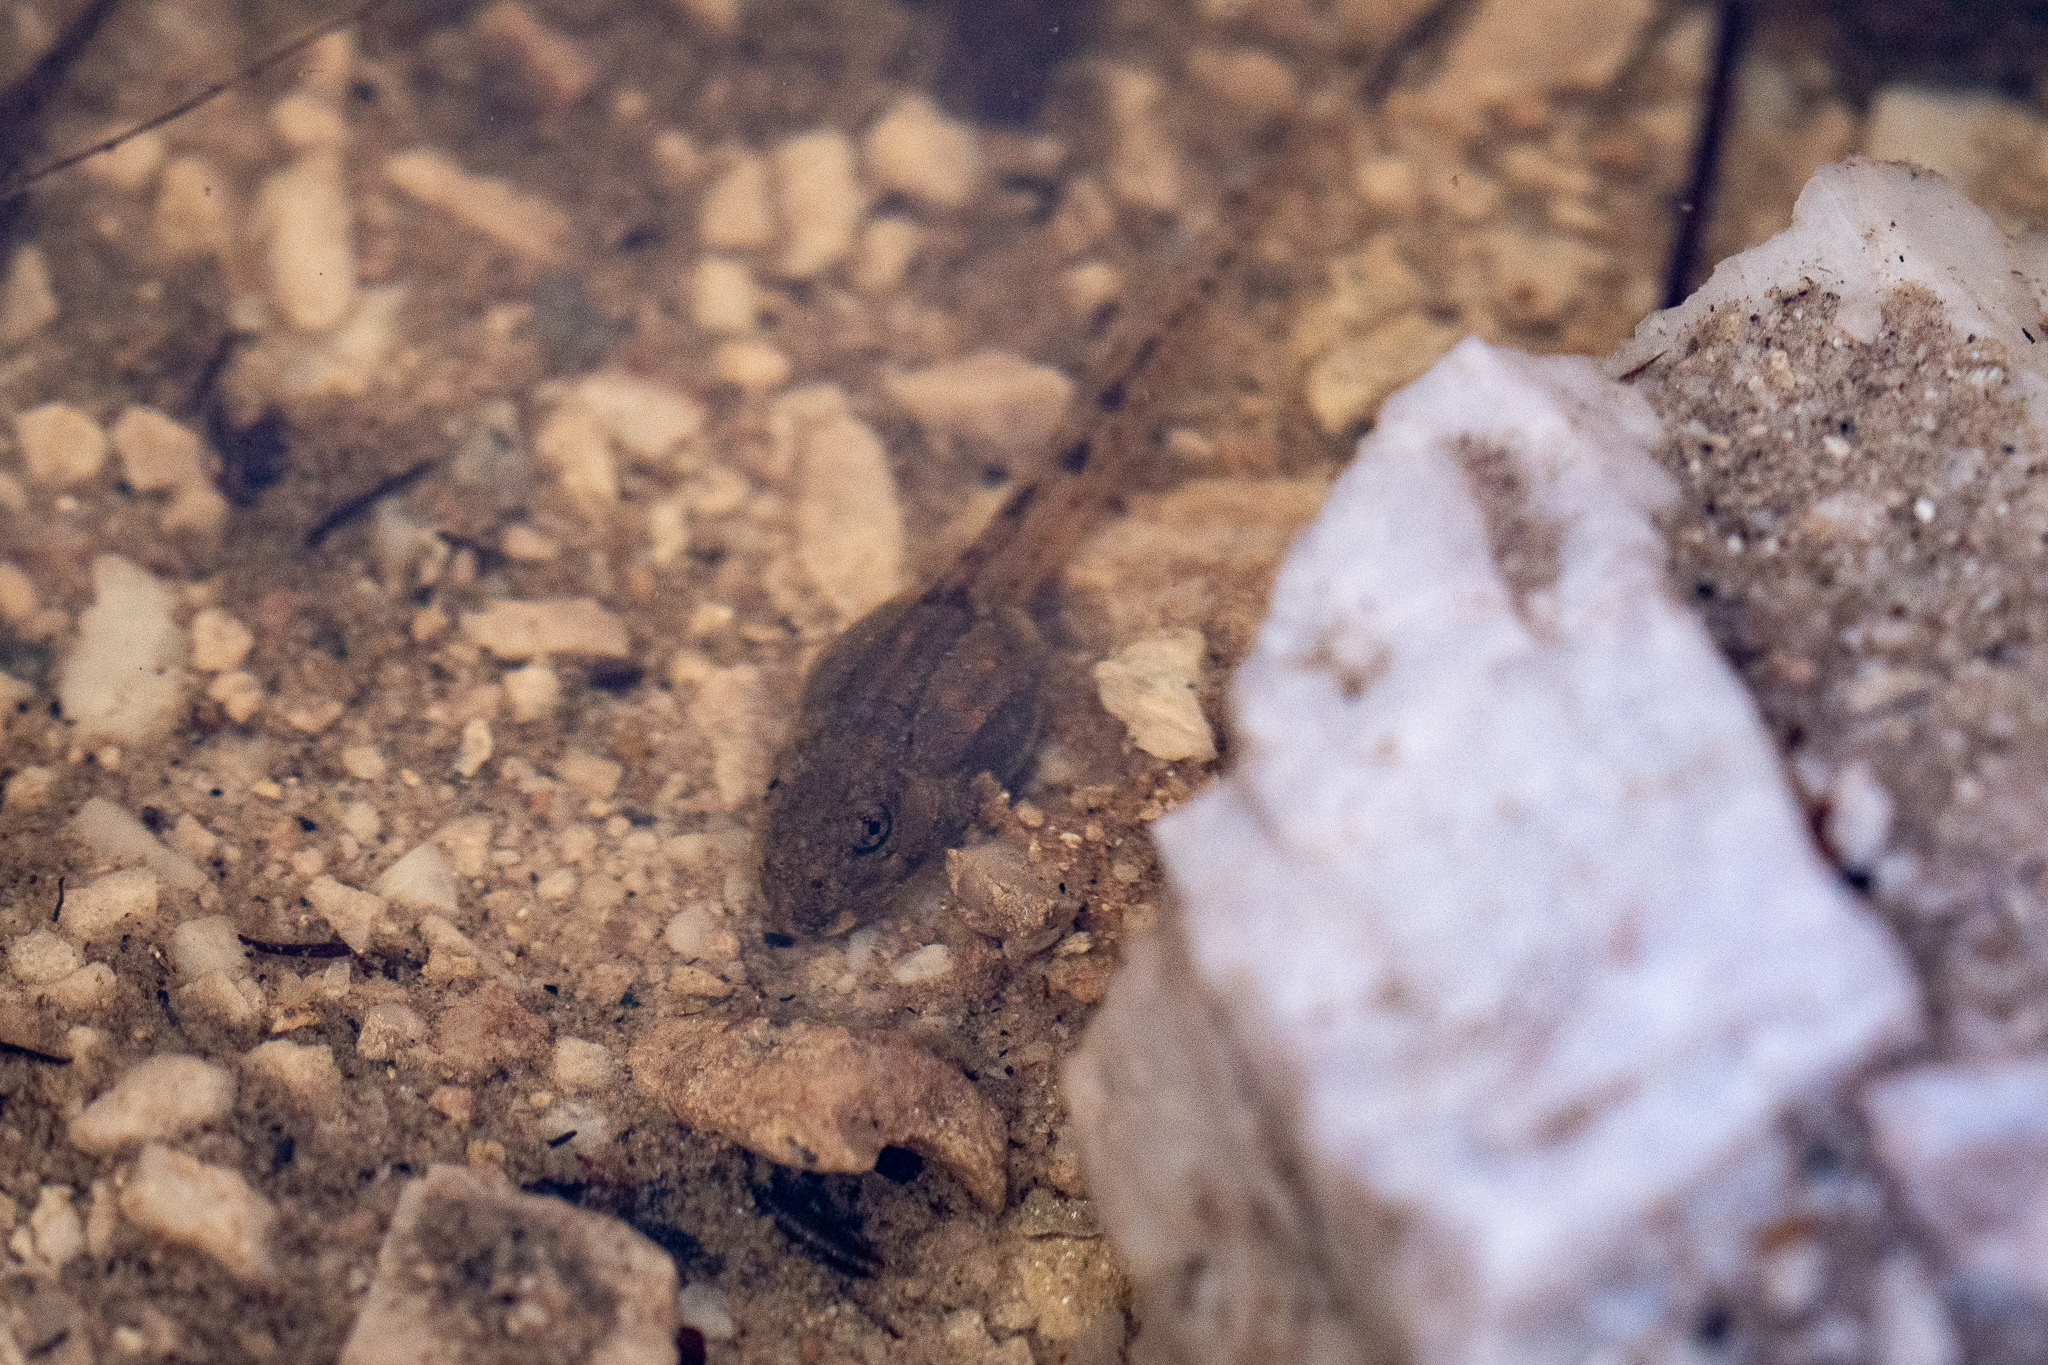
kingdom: Animalia
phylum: Chordata
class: Amphibia
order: Anura
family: Pyxicephalidae
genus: Amietia
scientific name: Amietia fuscigula
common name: Cape rana
